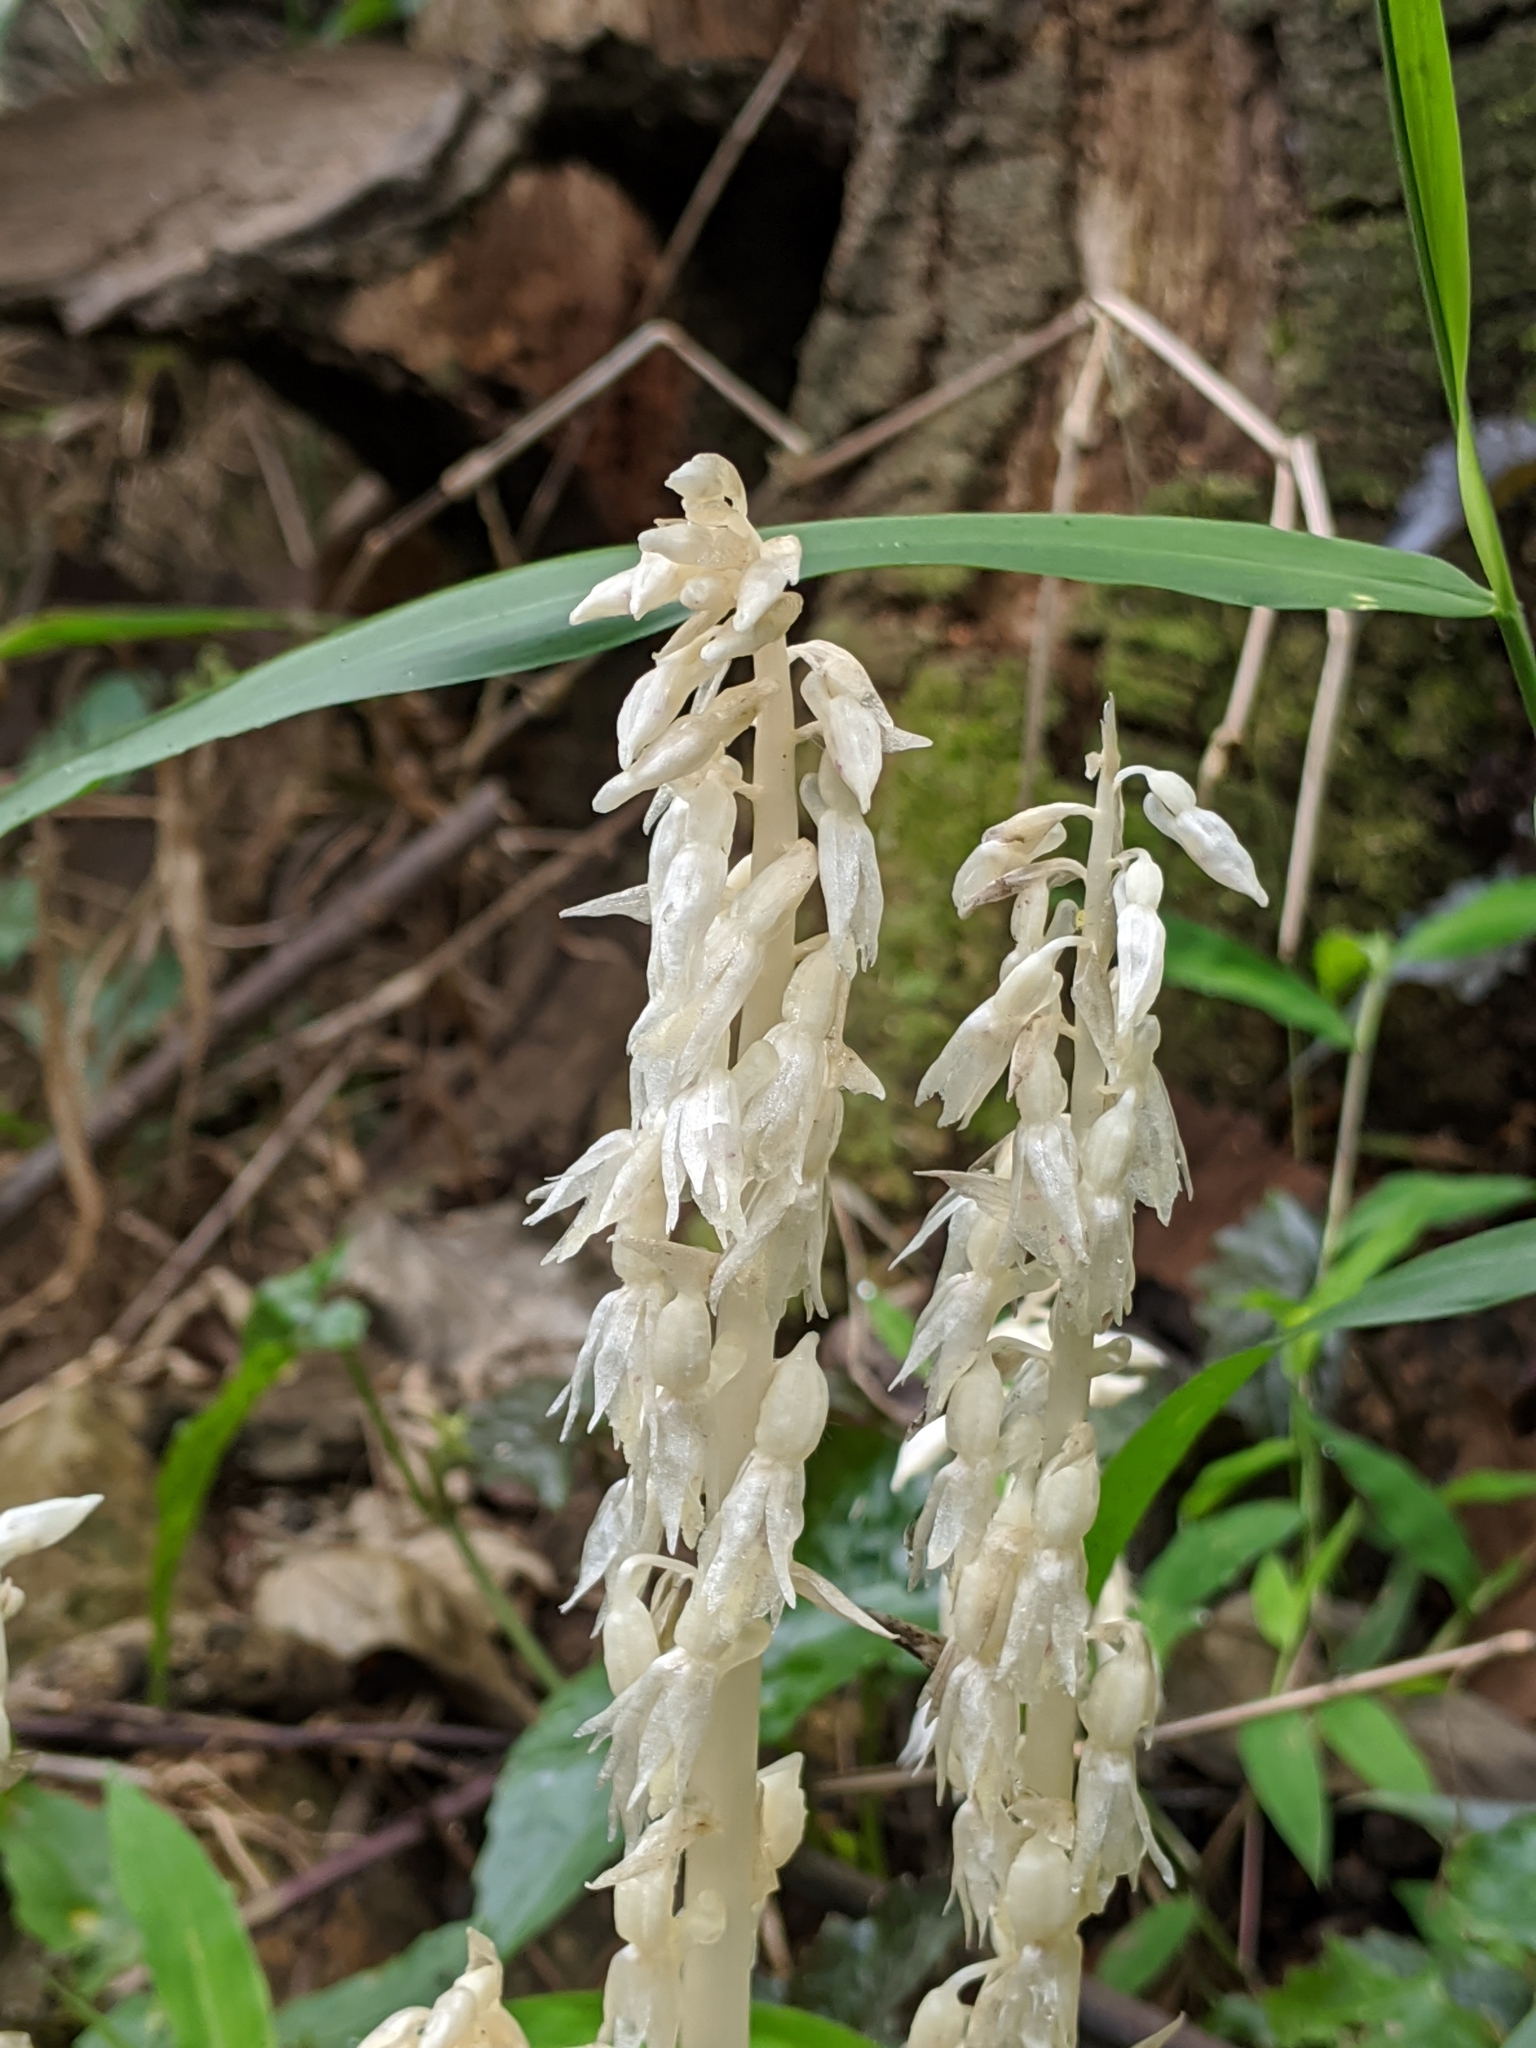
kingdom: Plantae
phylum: Tracheophyta
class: Liliopsida
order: Asparagales
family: Orchidaceae
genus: Epipogium
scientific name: Epipogium roseum
